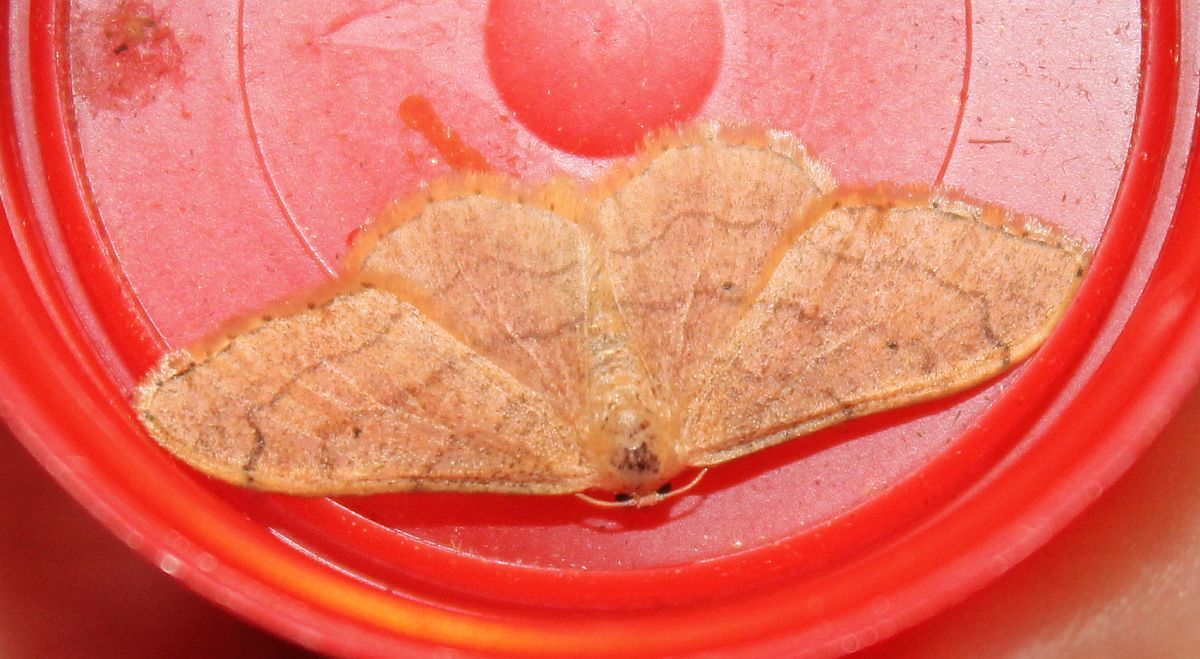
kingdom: Animalia
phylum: Arthropoda
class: Insecta
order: Lepidoptera
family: Geometridae
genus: Idaea
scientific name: Idaea aversata
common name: Riband wave
